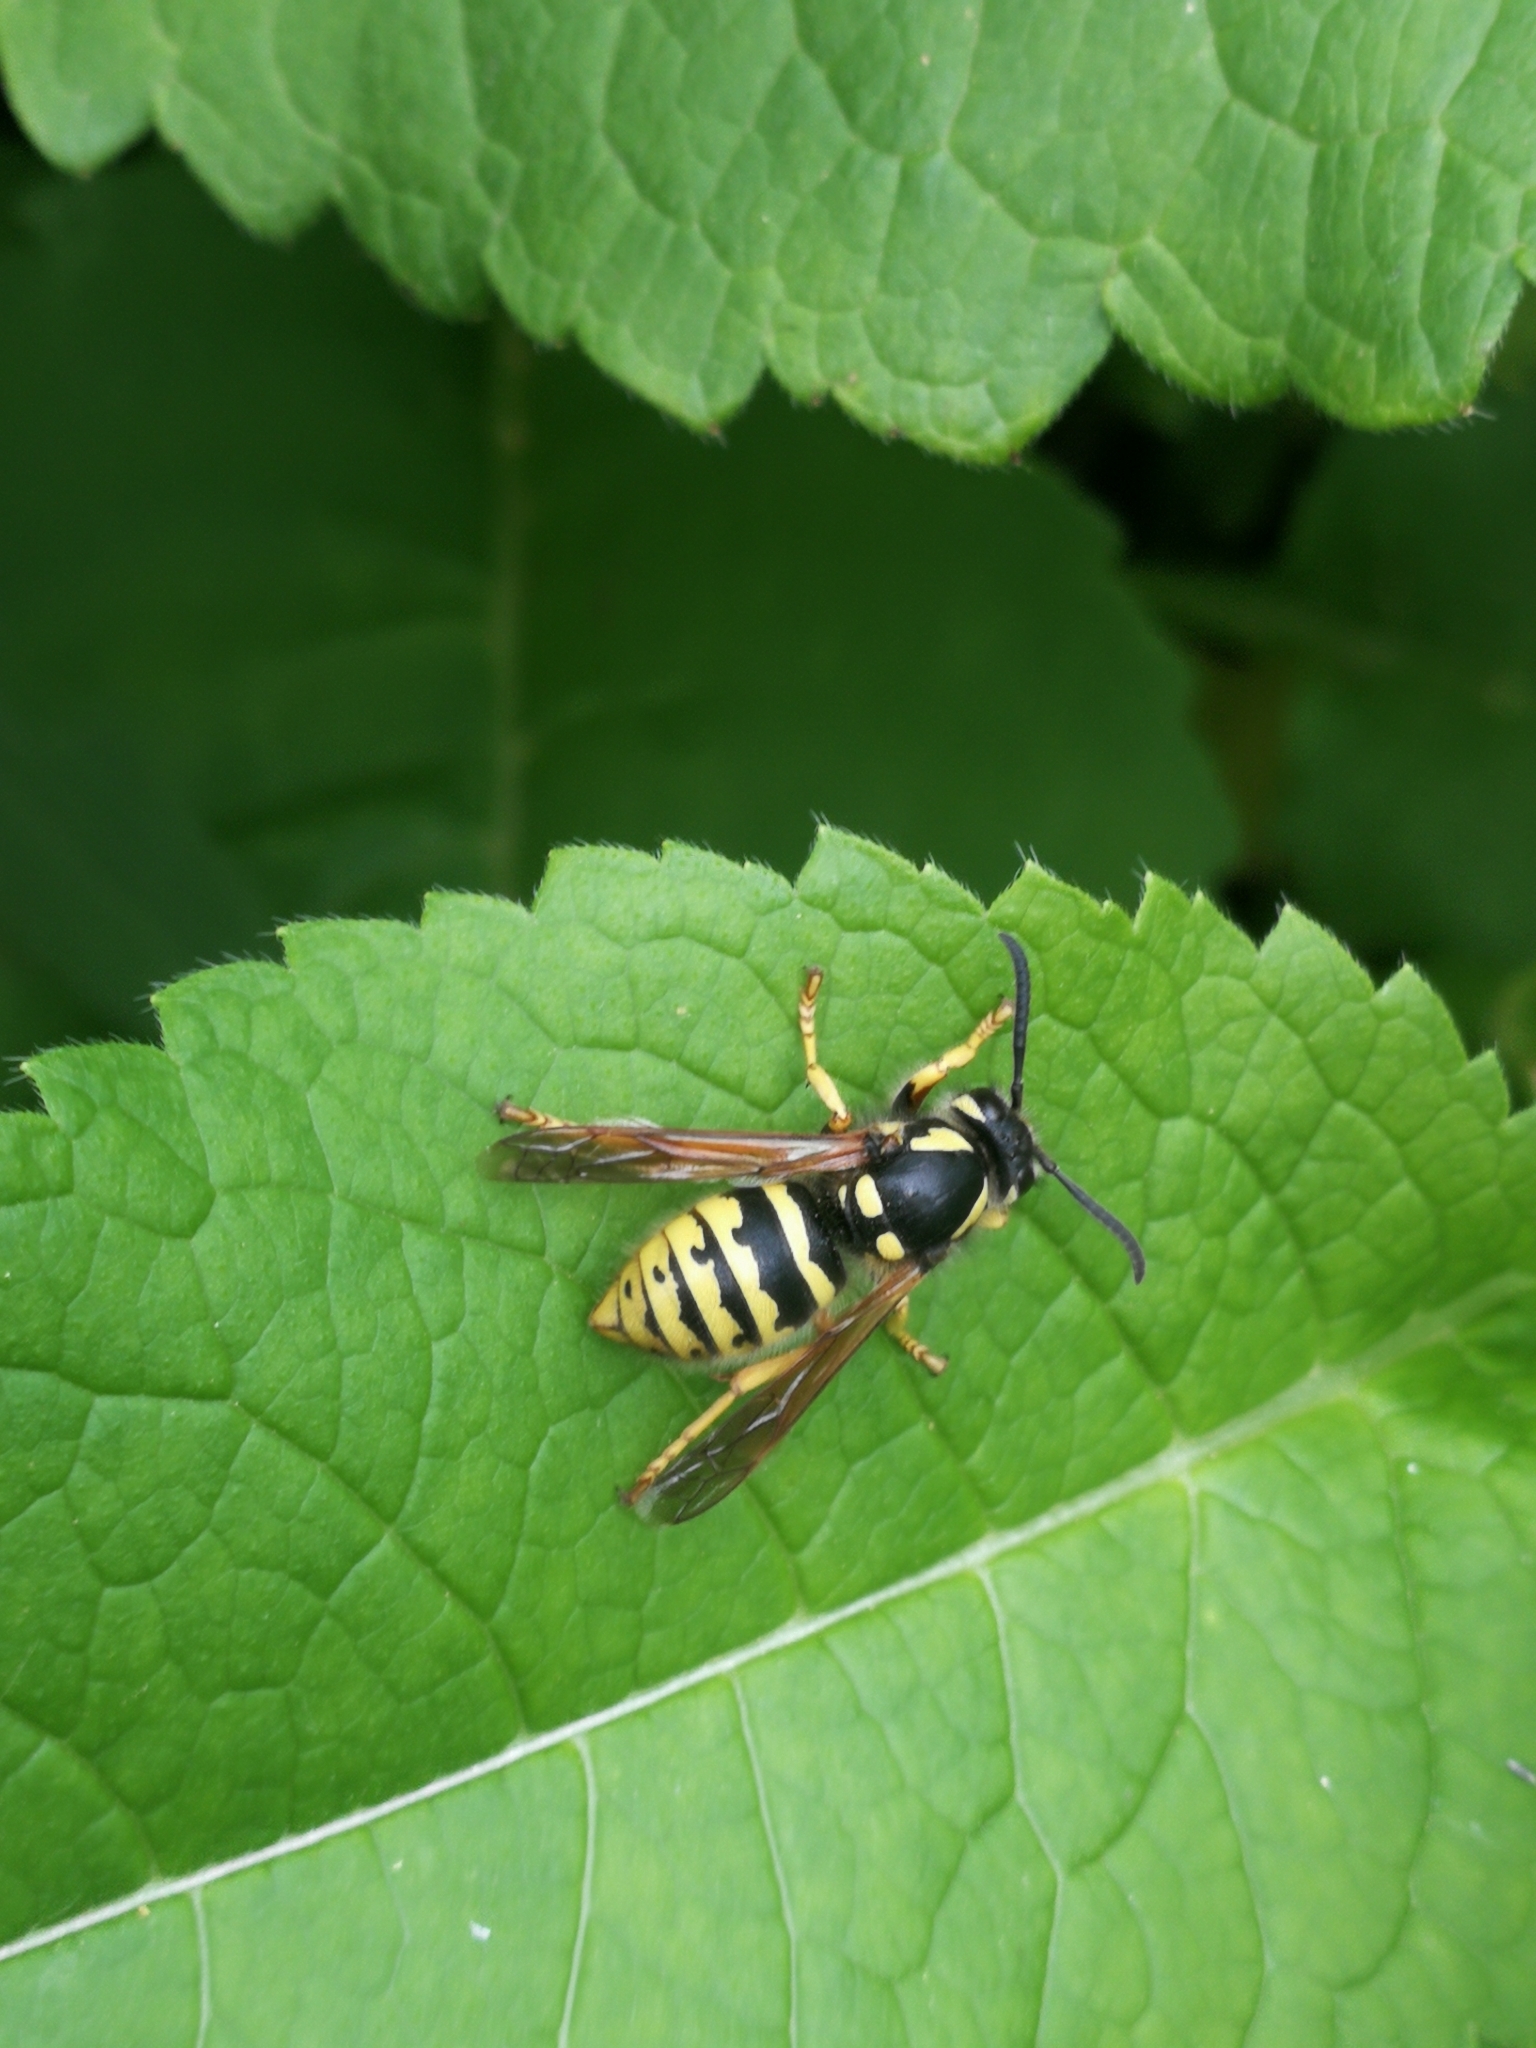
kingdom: Animalia
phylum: Arthropoda
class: Insecta
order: Hymenoptera
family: Vespidae
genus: Dolichovespula
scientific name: Dolichovespula omissa
